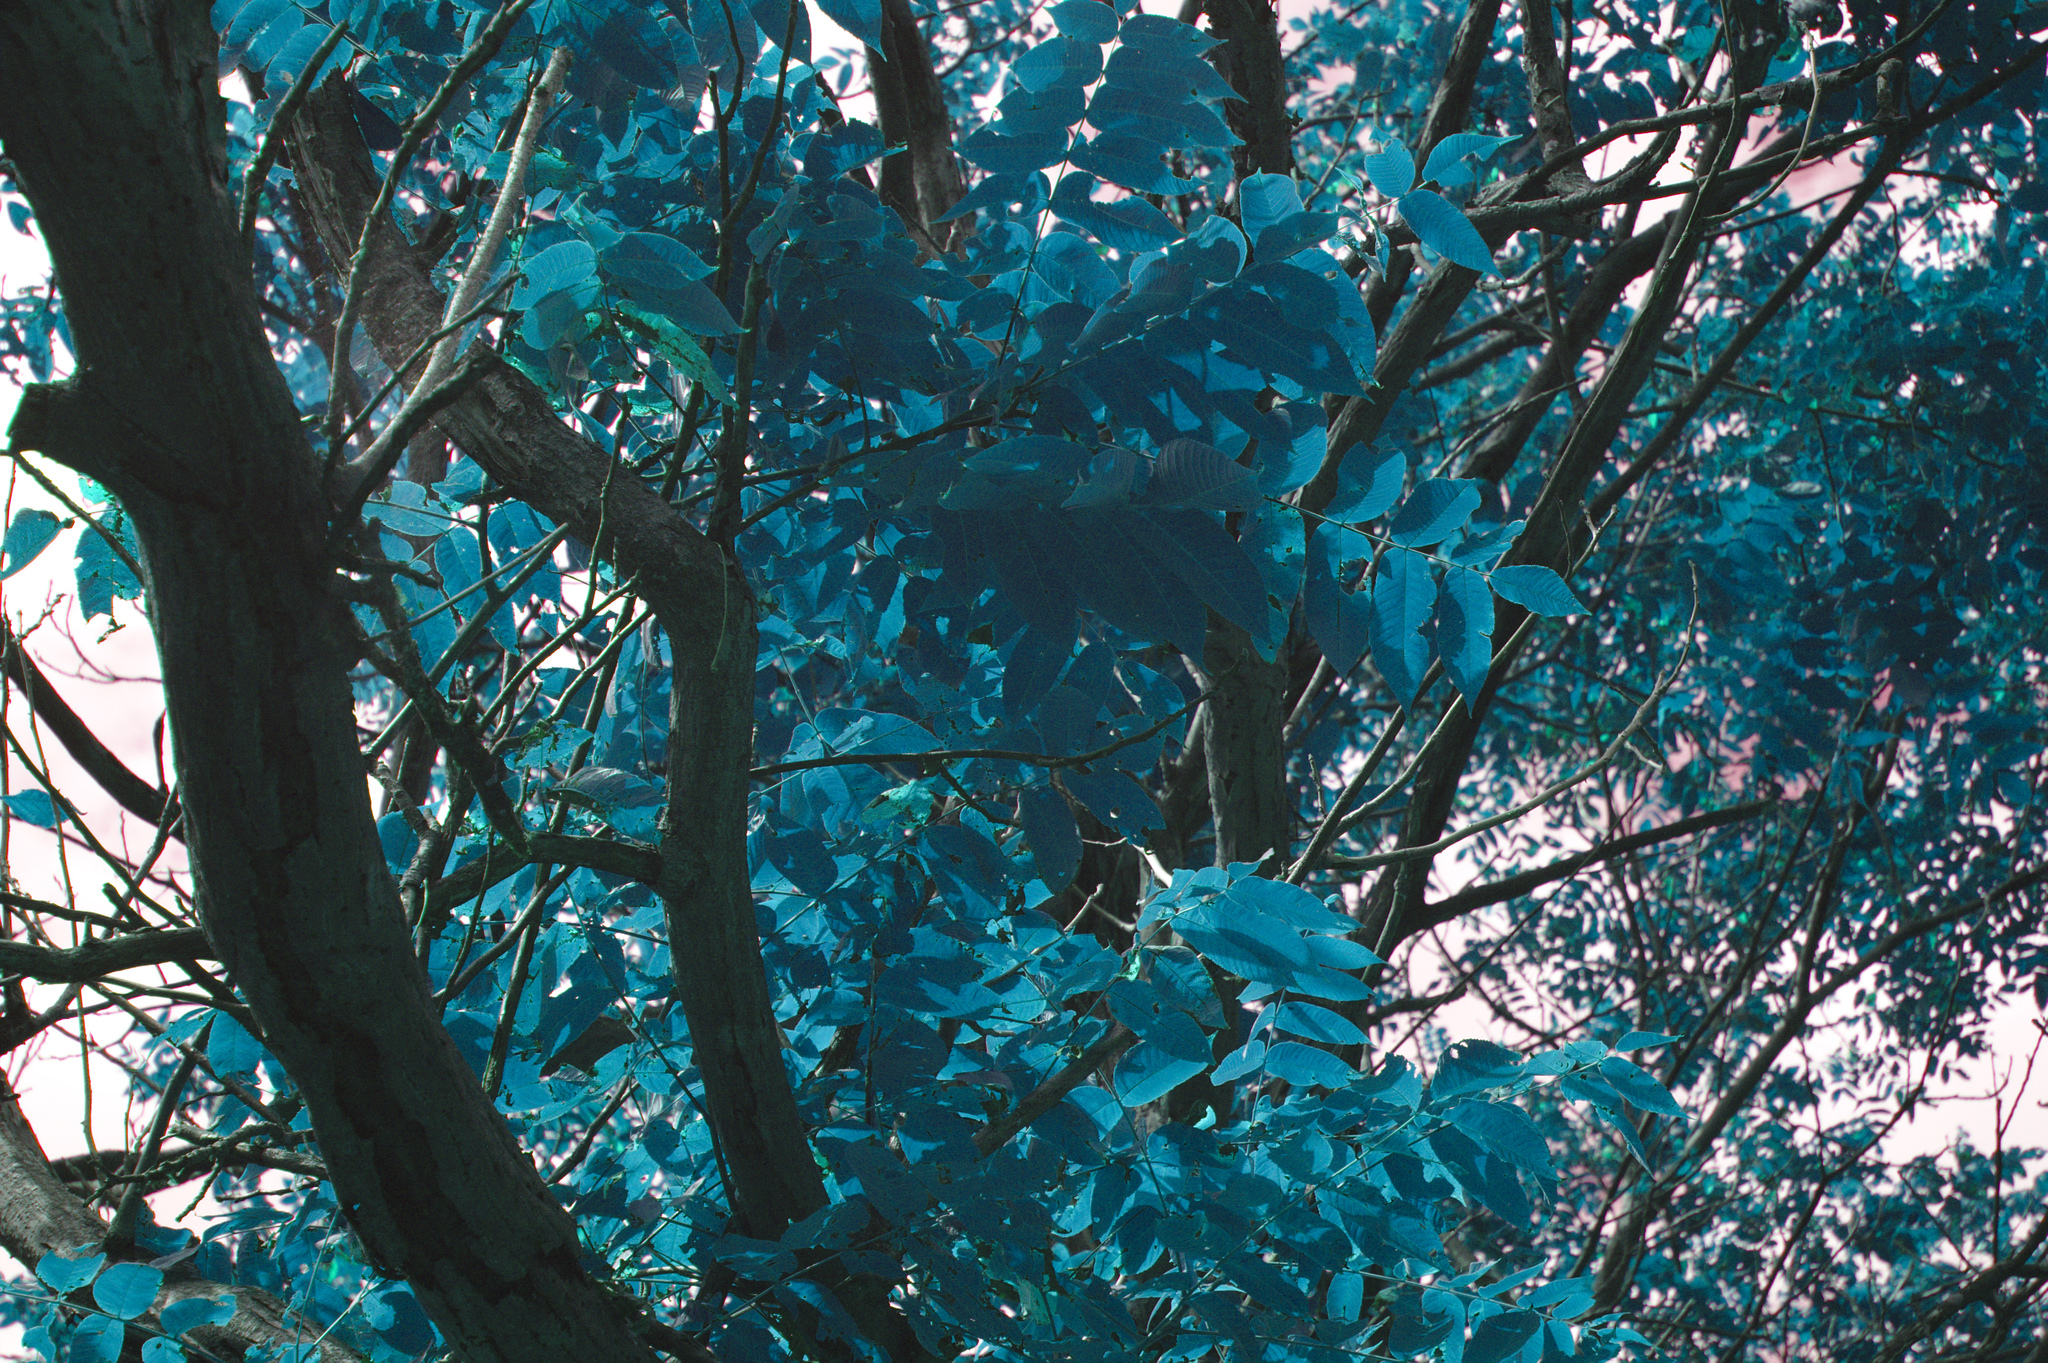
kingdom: Plantae
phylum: Tracheophyta
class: Magnoliopsida
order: Fagales
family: Juglandaceae
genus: Juglans
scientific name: Juglans cinerea
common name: Butternut
